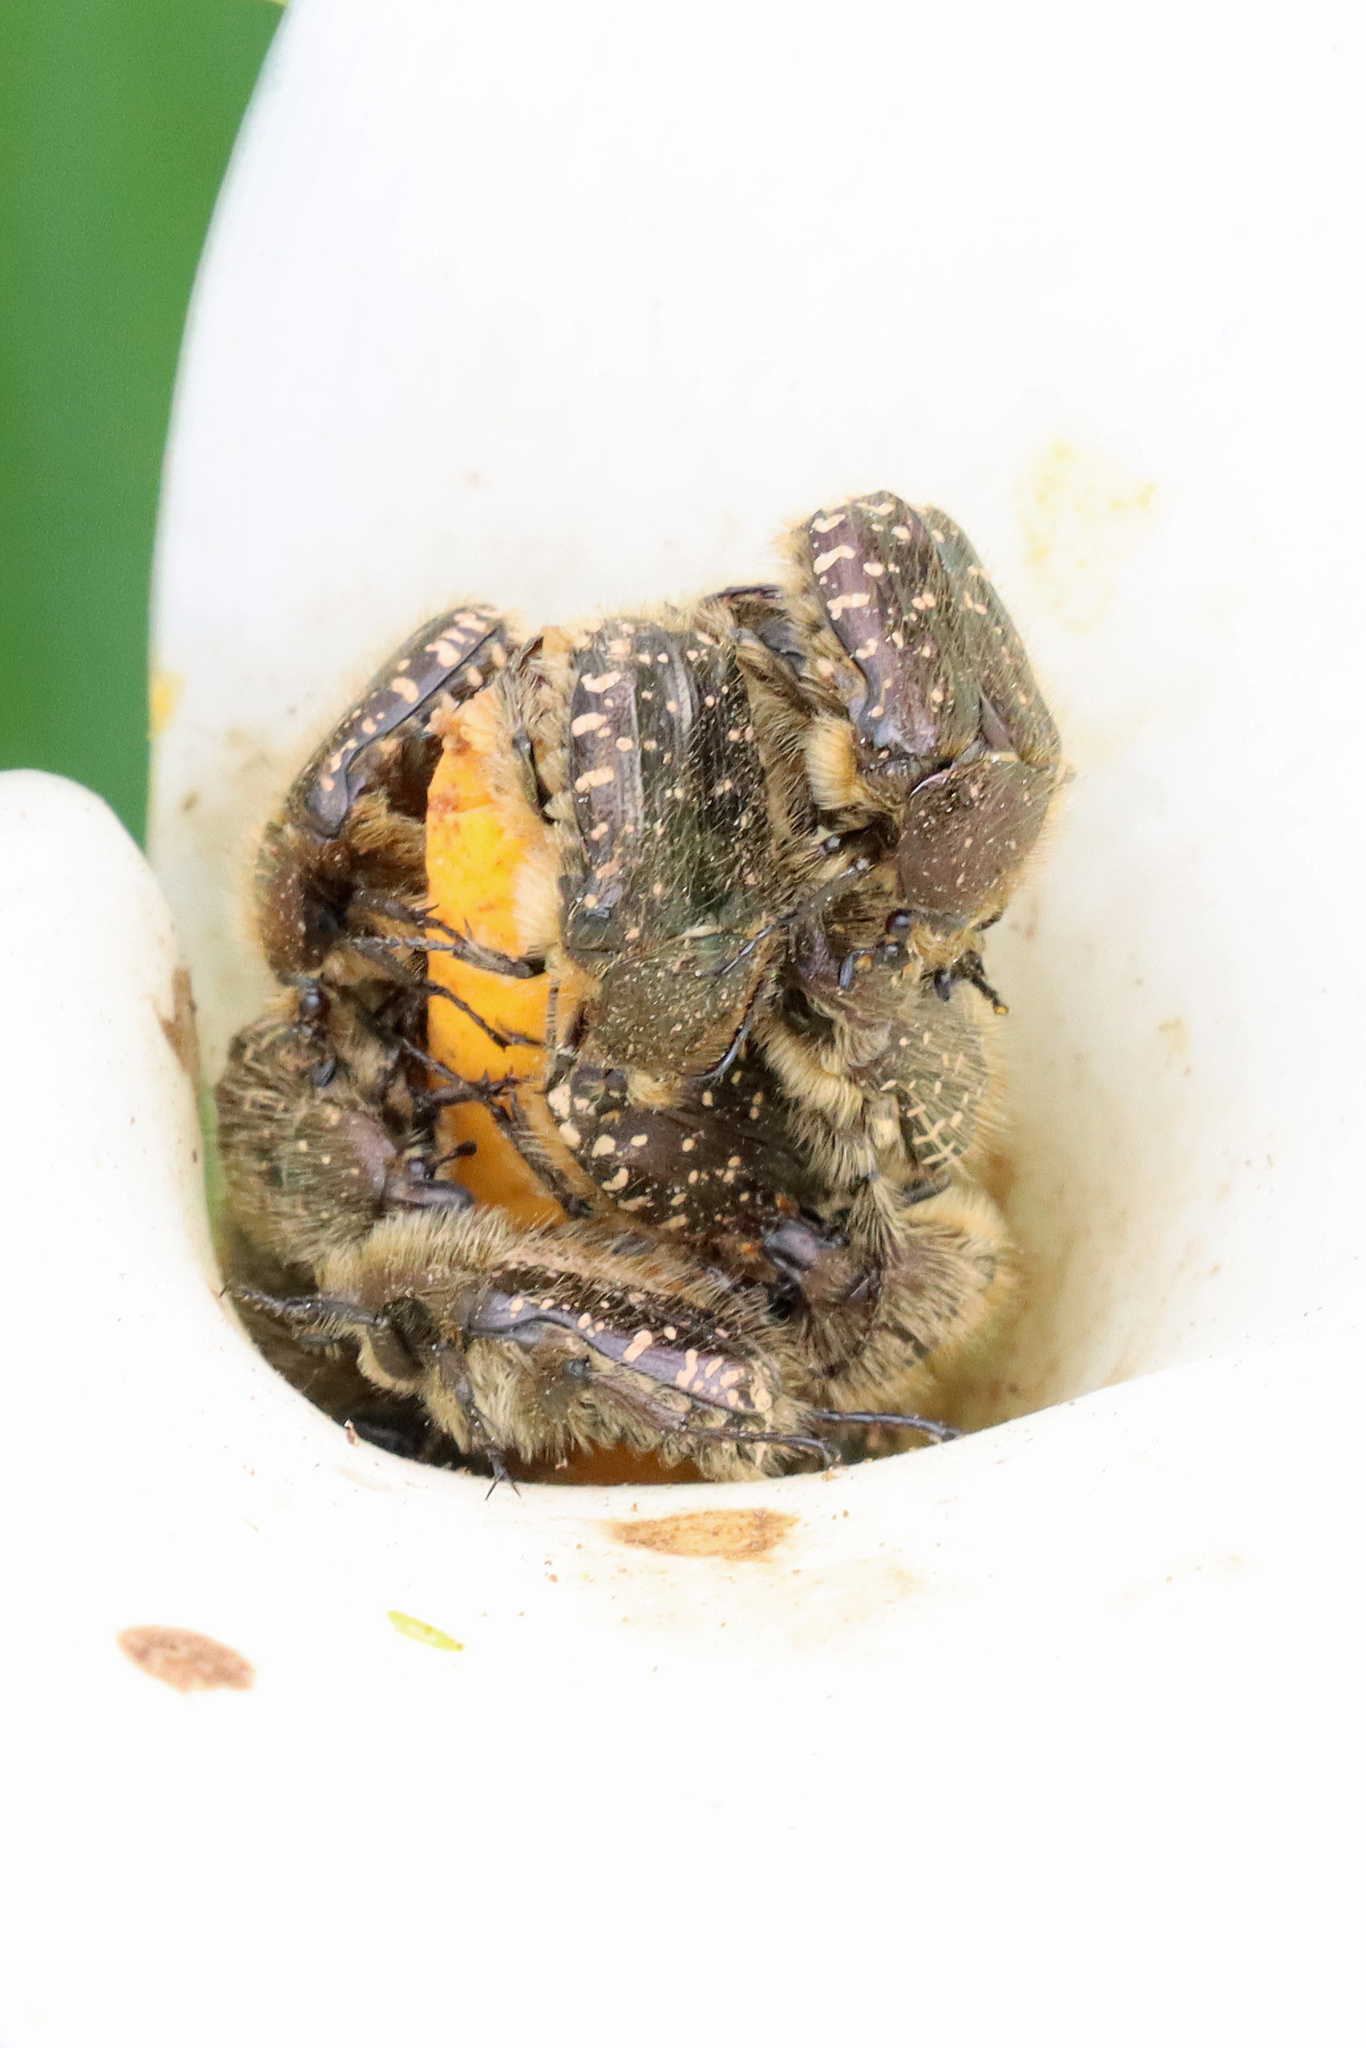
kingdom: Animalia
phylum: Arthropoda
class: Insecta
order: Coleoptera
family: Scarabaeidae
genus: Oxythyrea
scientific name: Oxythyrea funesta
